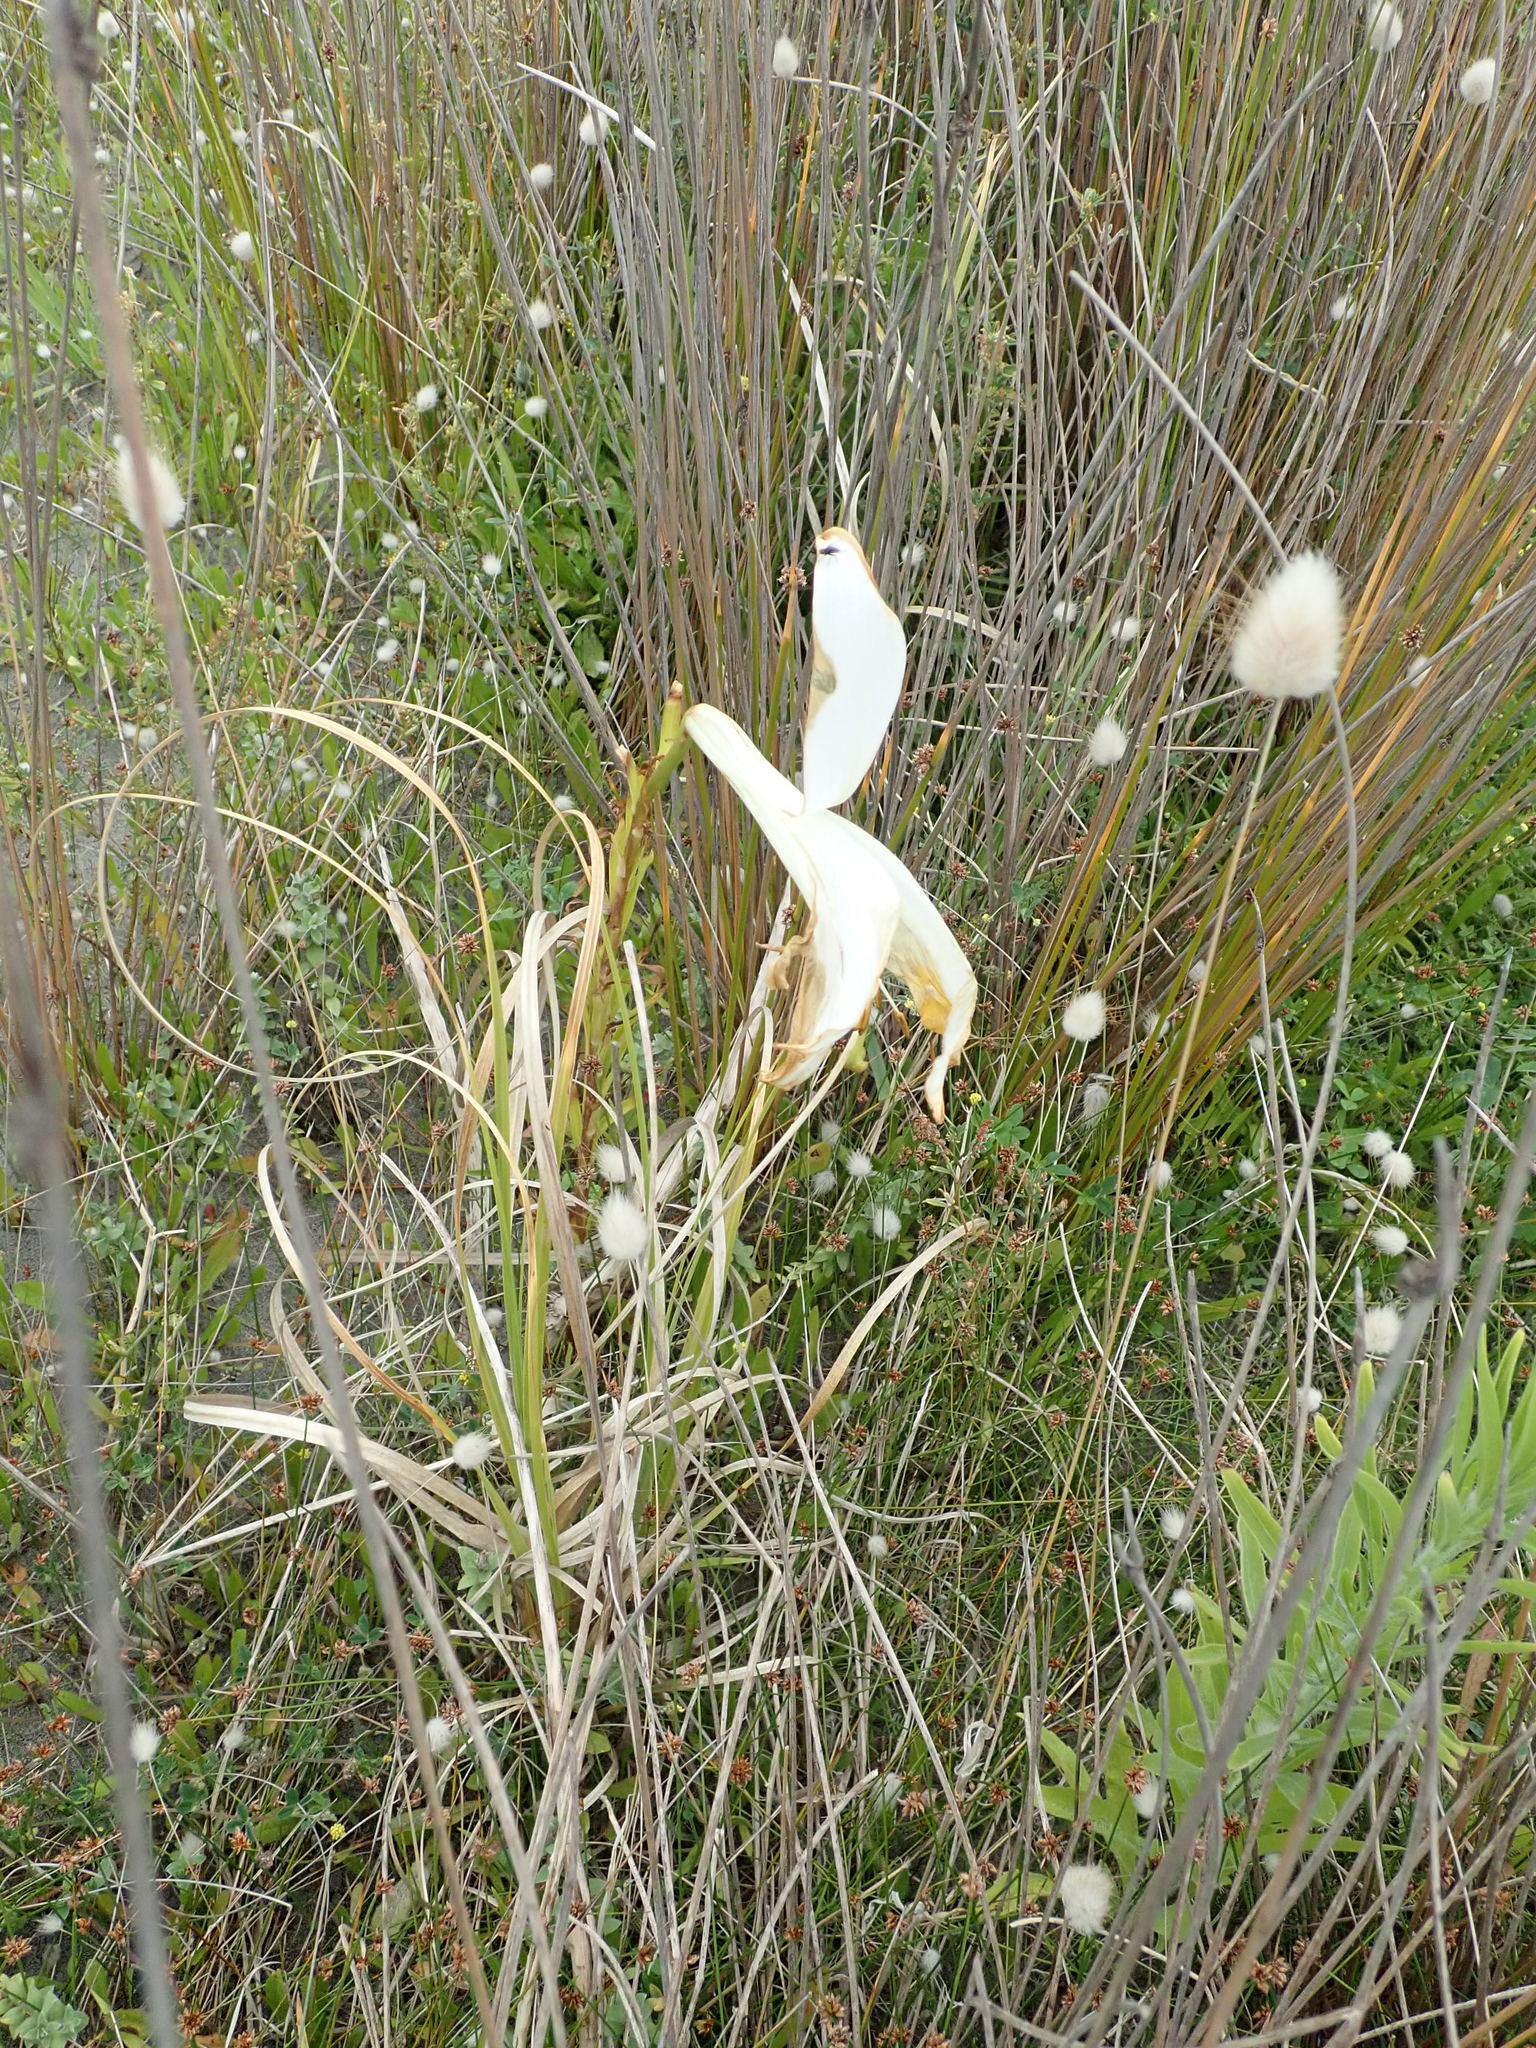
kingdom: Plantae
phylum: Tracheophyta
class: Liliopsida
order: Liliales
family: Liliaceae
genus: Lilium
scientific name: Lilium formosanum
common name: Formosa lily
